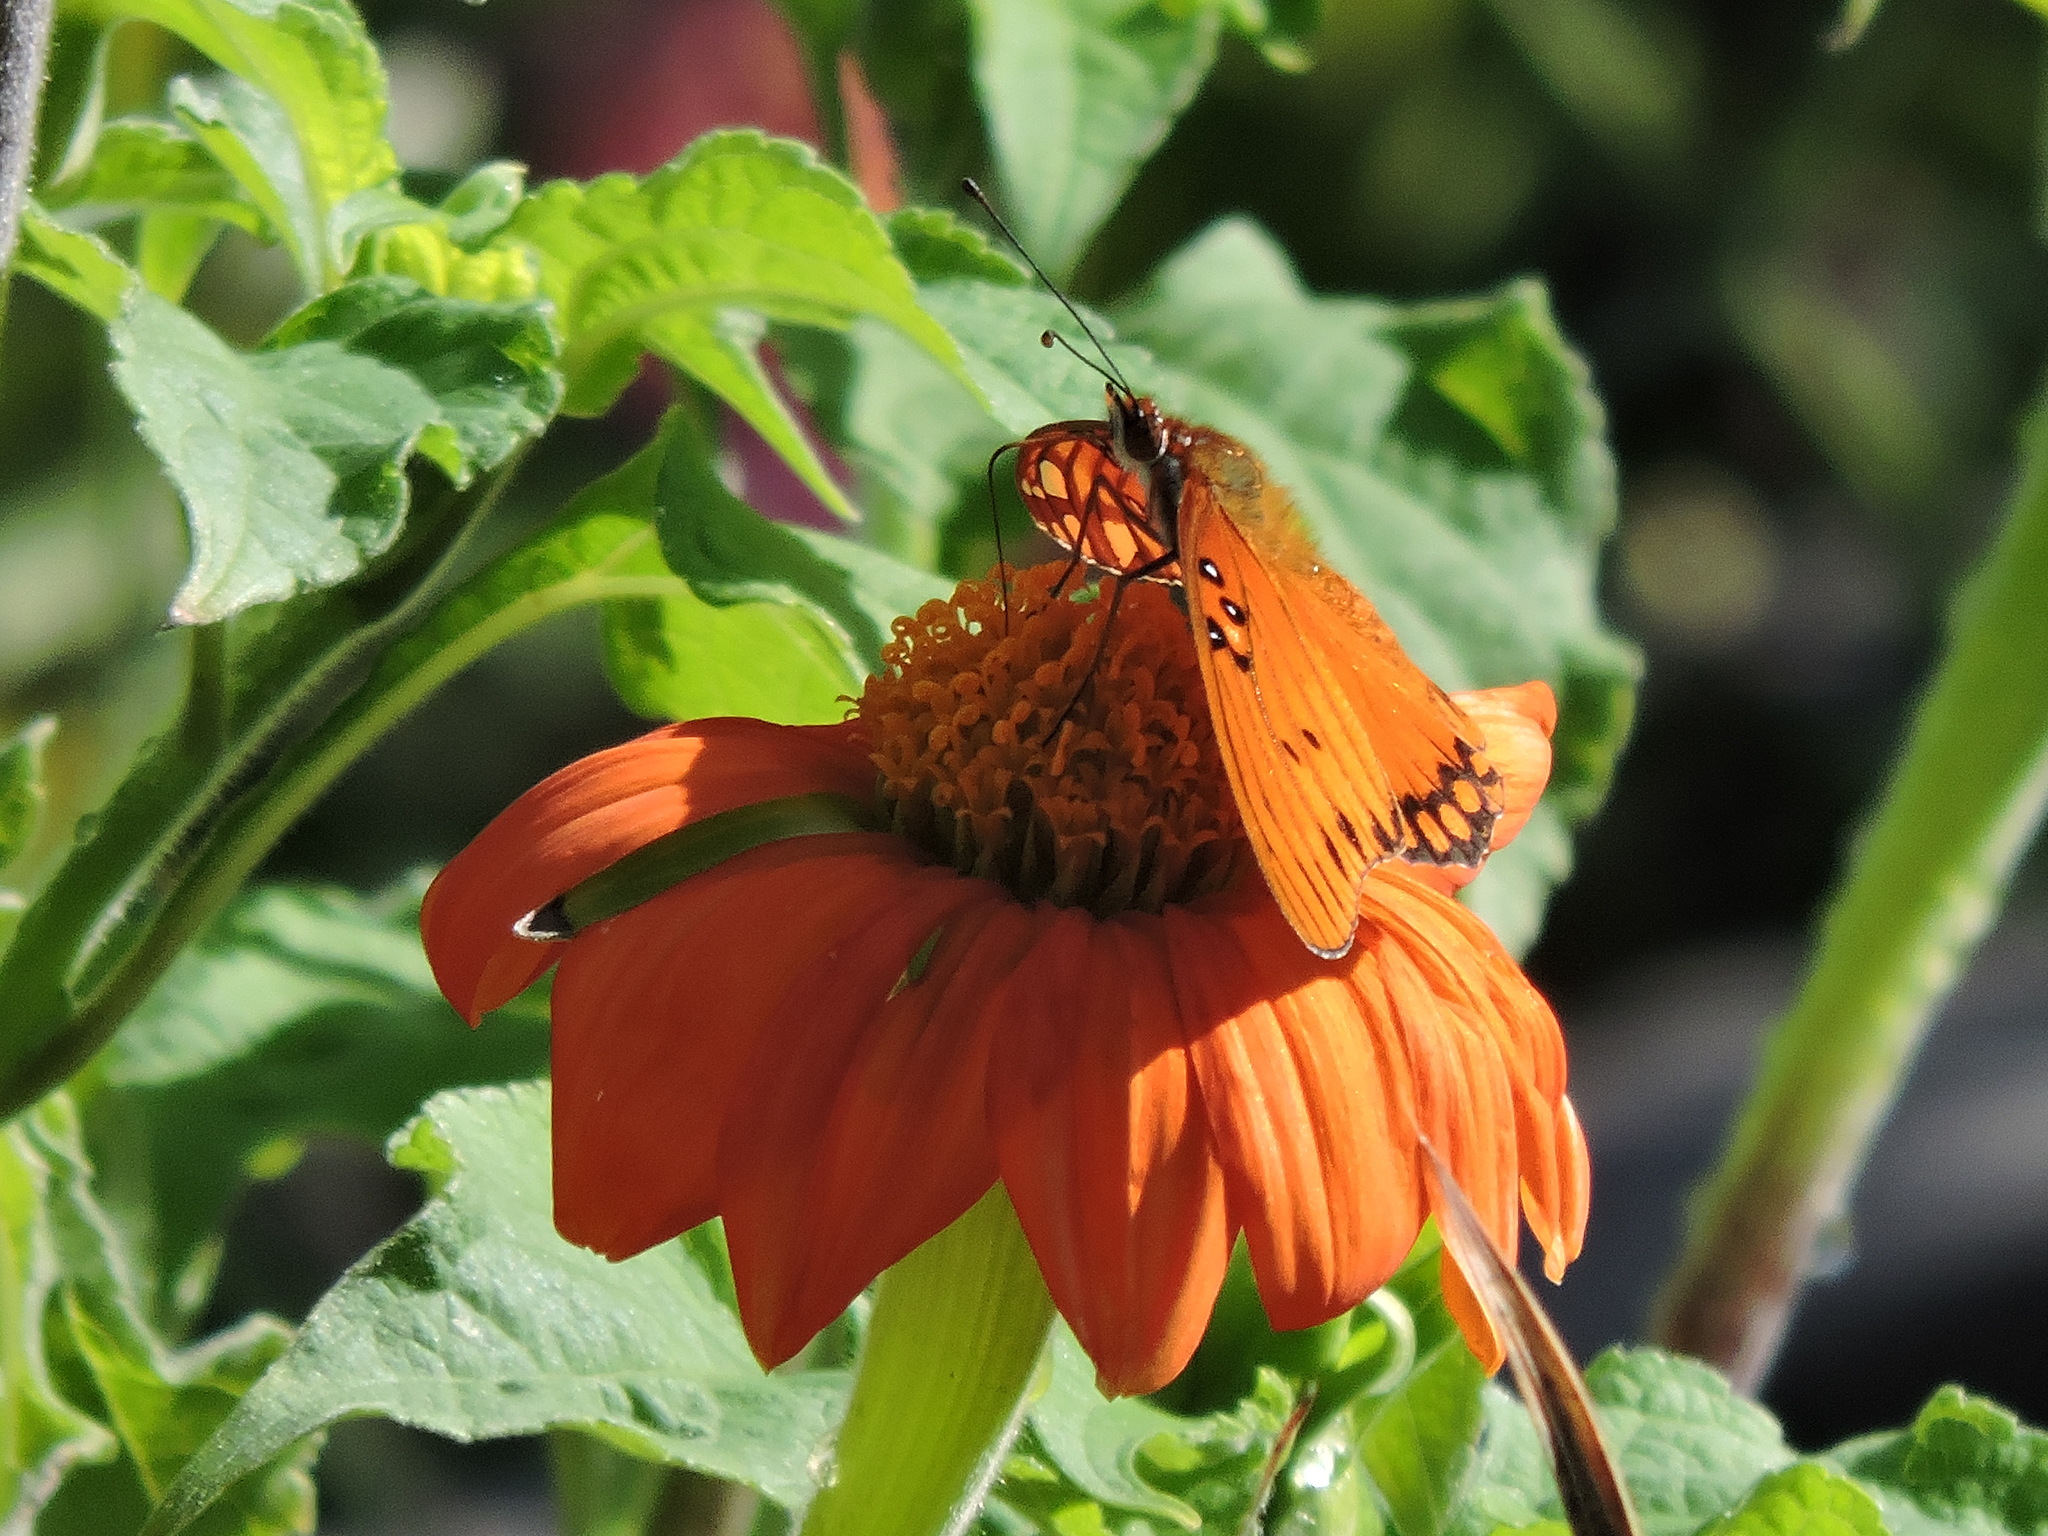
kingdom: Animalia
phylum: Arthropoda
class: Insecta
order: Lepidoptera
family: Nymphalidae
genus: Dione
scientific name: Dione vanillae
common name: Gulf fritillary
